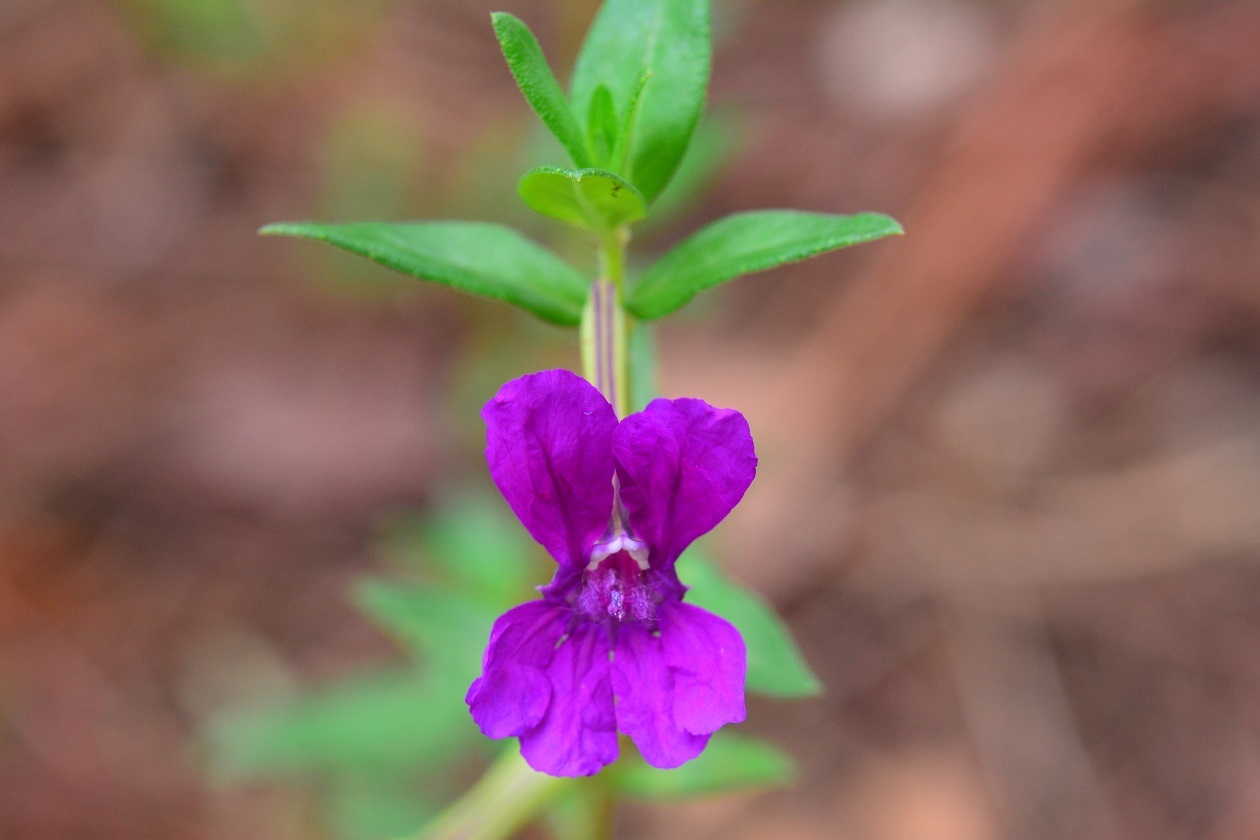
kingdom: Plantae
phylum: Tracheophyta
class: Magnoliopsida
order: Myrtales
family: Lythraceae
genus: Cuphea
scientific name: Cuphea aequipetala
